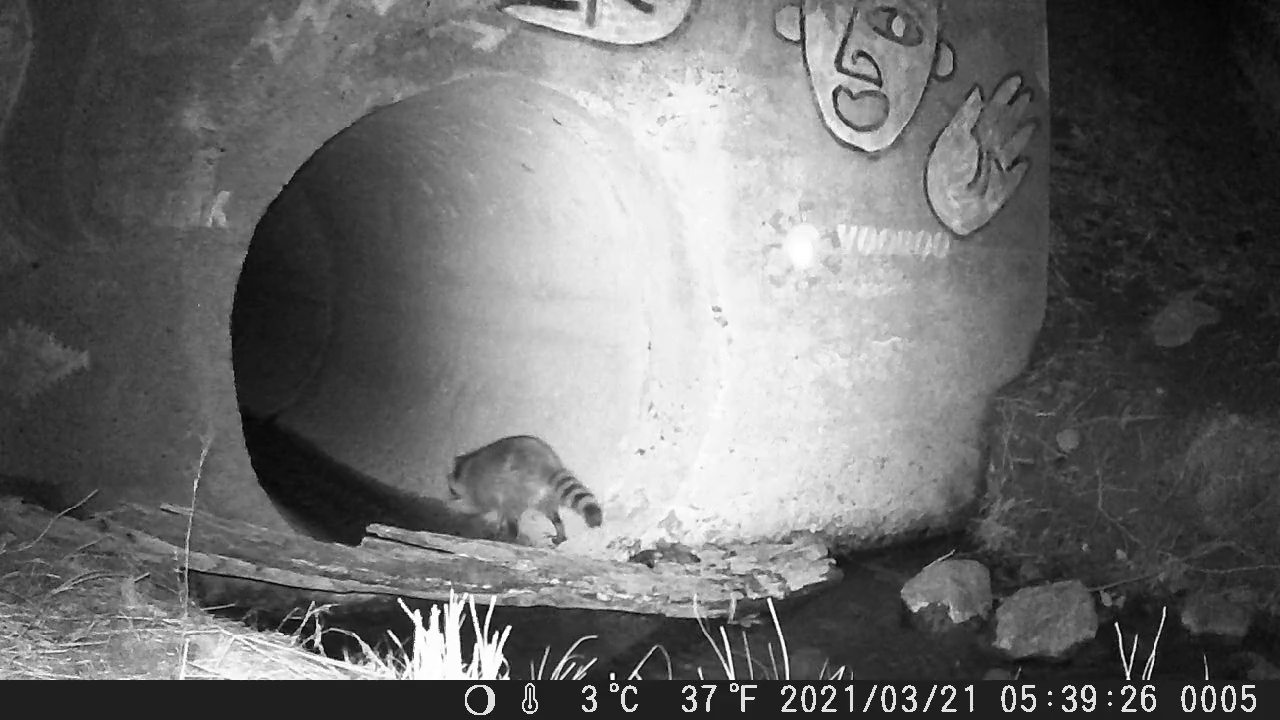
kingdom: Animalia
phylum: Chordata
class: Mammalia
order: Carnivora
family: Procyonidae
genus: Procyon
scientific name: Procyon lotor
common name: Raccoon
